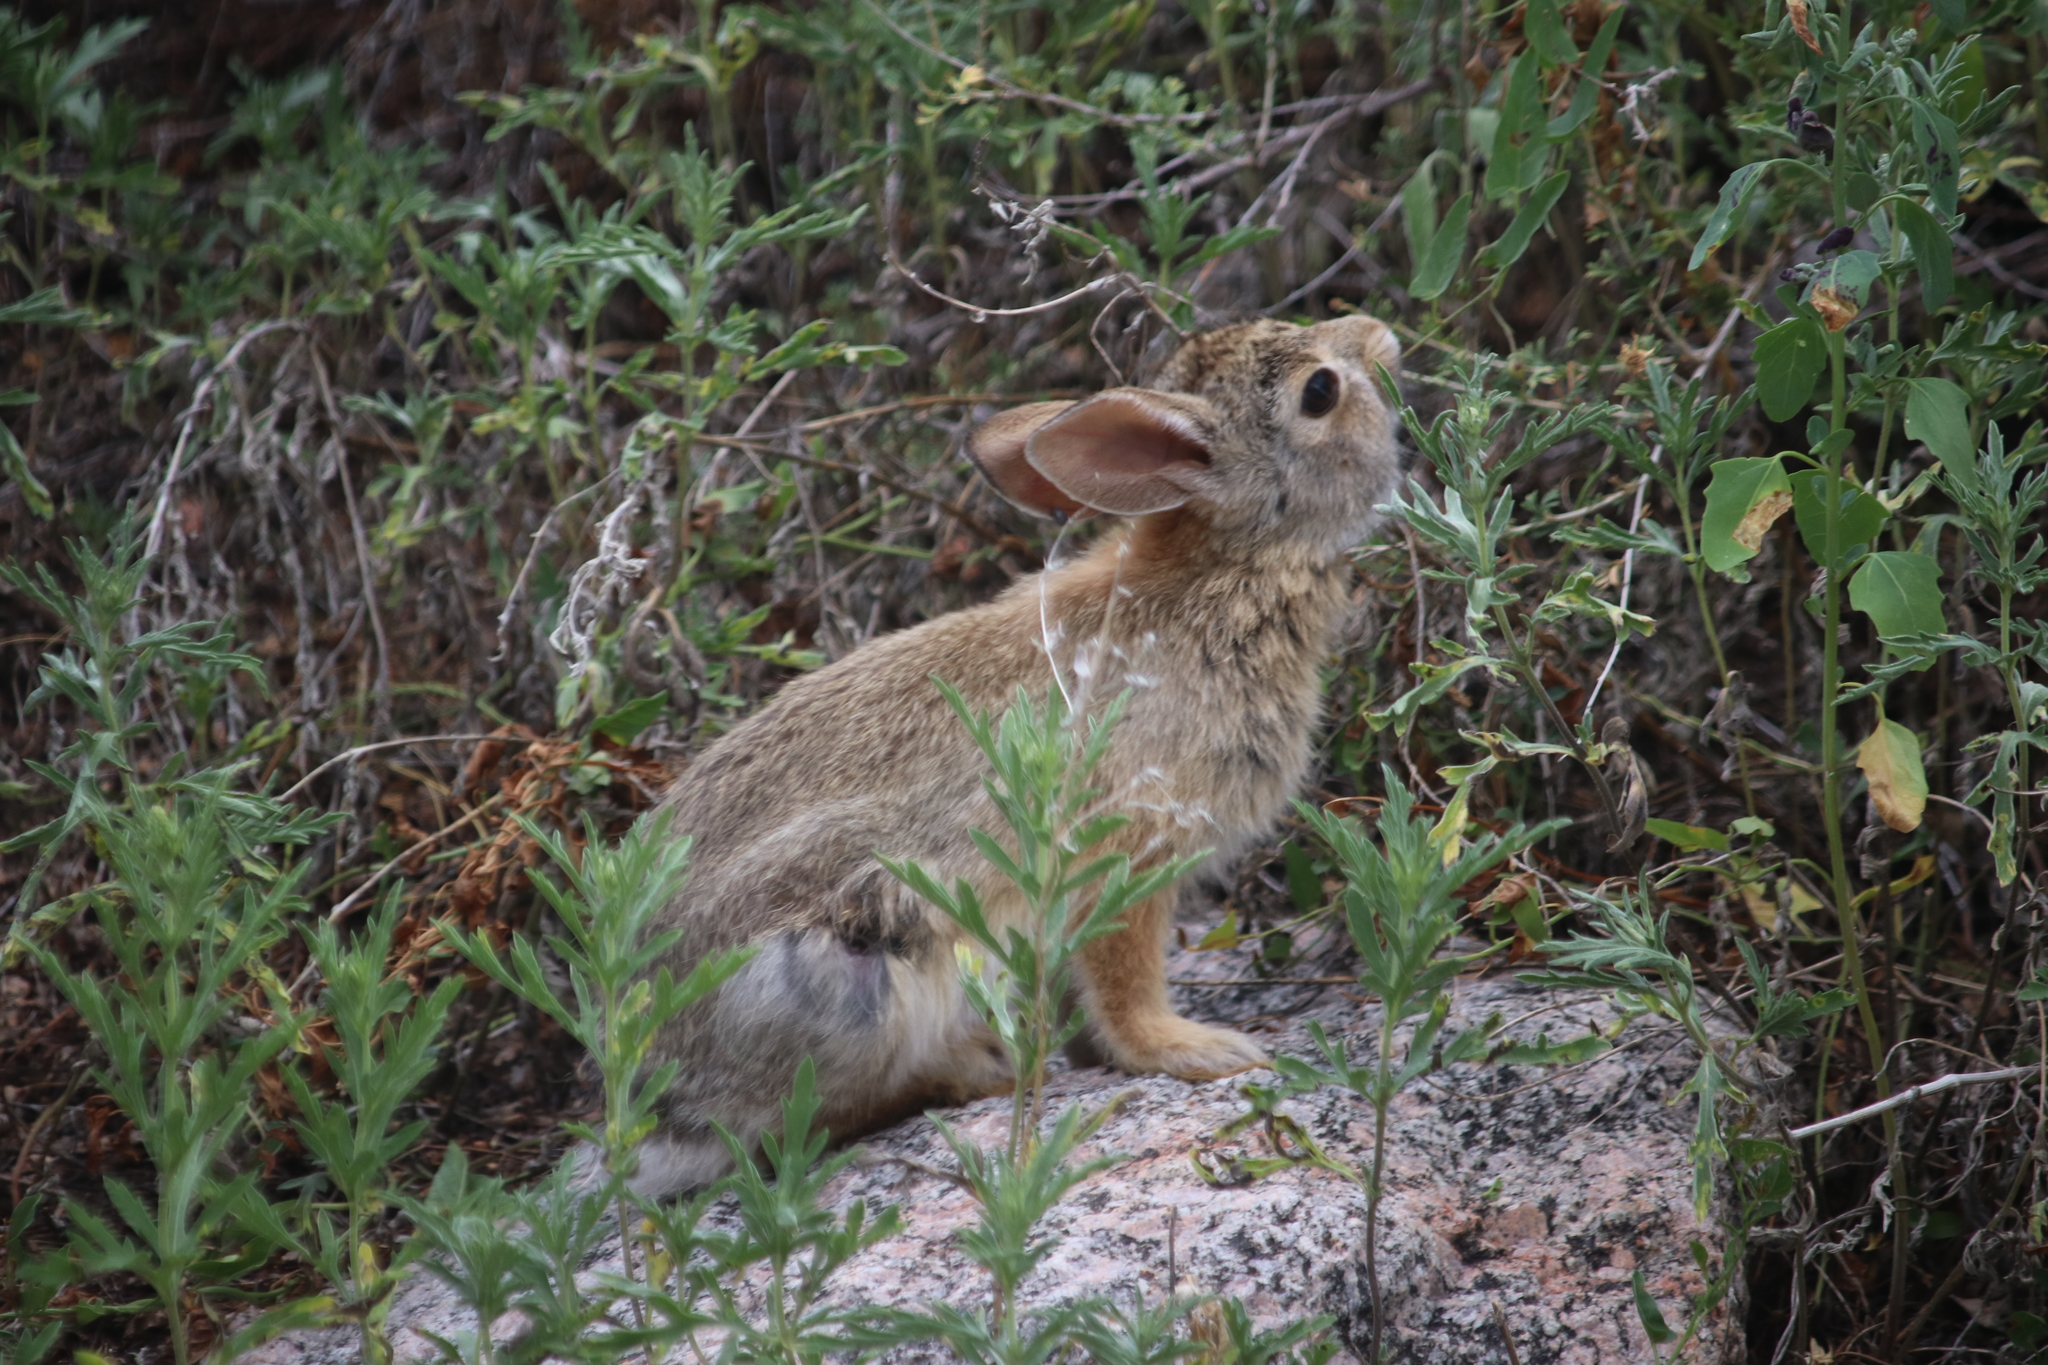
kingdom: Animalia
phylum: Chordata
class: Mammalia
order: Lagomorpha
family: Leporidae
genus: Sylvilagus
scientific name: Sylvilagus nuttallii
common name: Mountain cottontail
